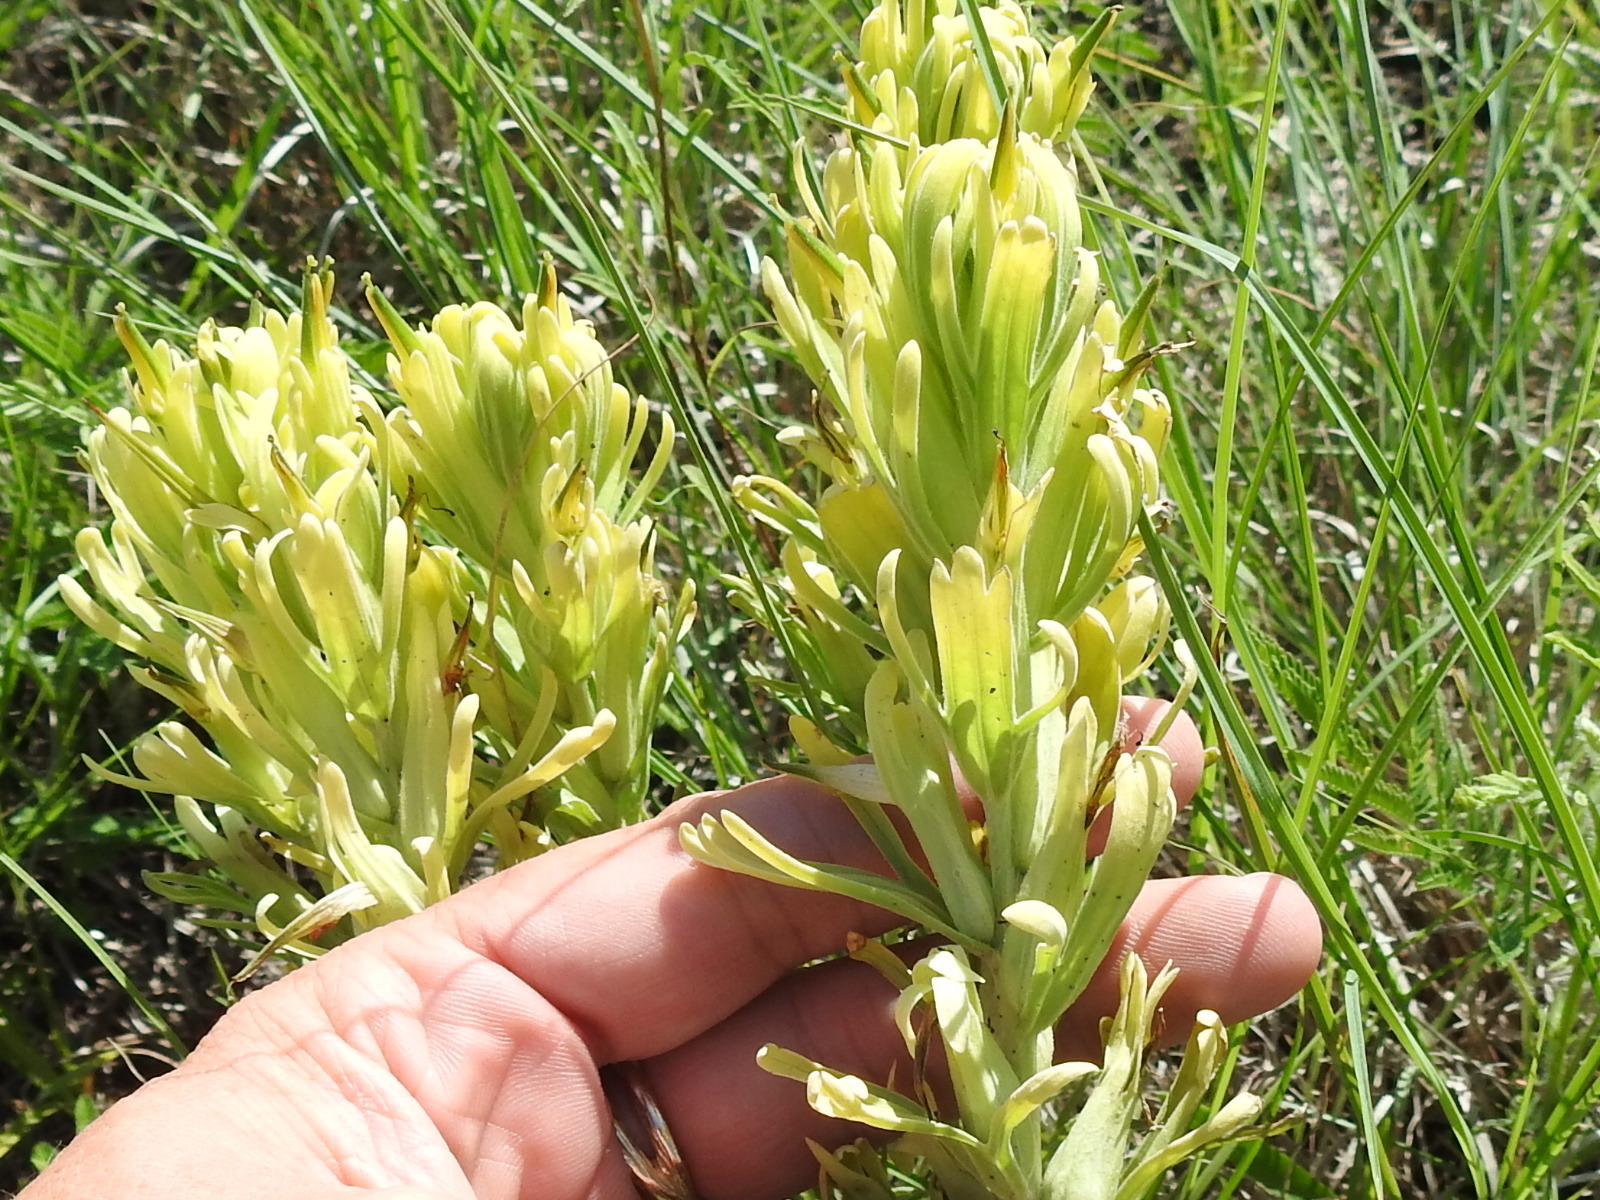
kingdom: Plantae
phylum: Tracheophyta
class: Magnoliopsida
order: Lamiales
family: Orobanchaceae
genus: Castilleja
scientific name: Castilleja citrina
